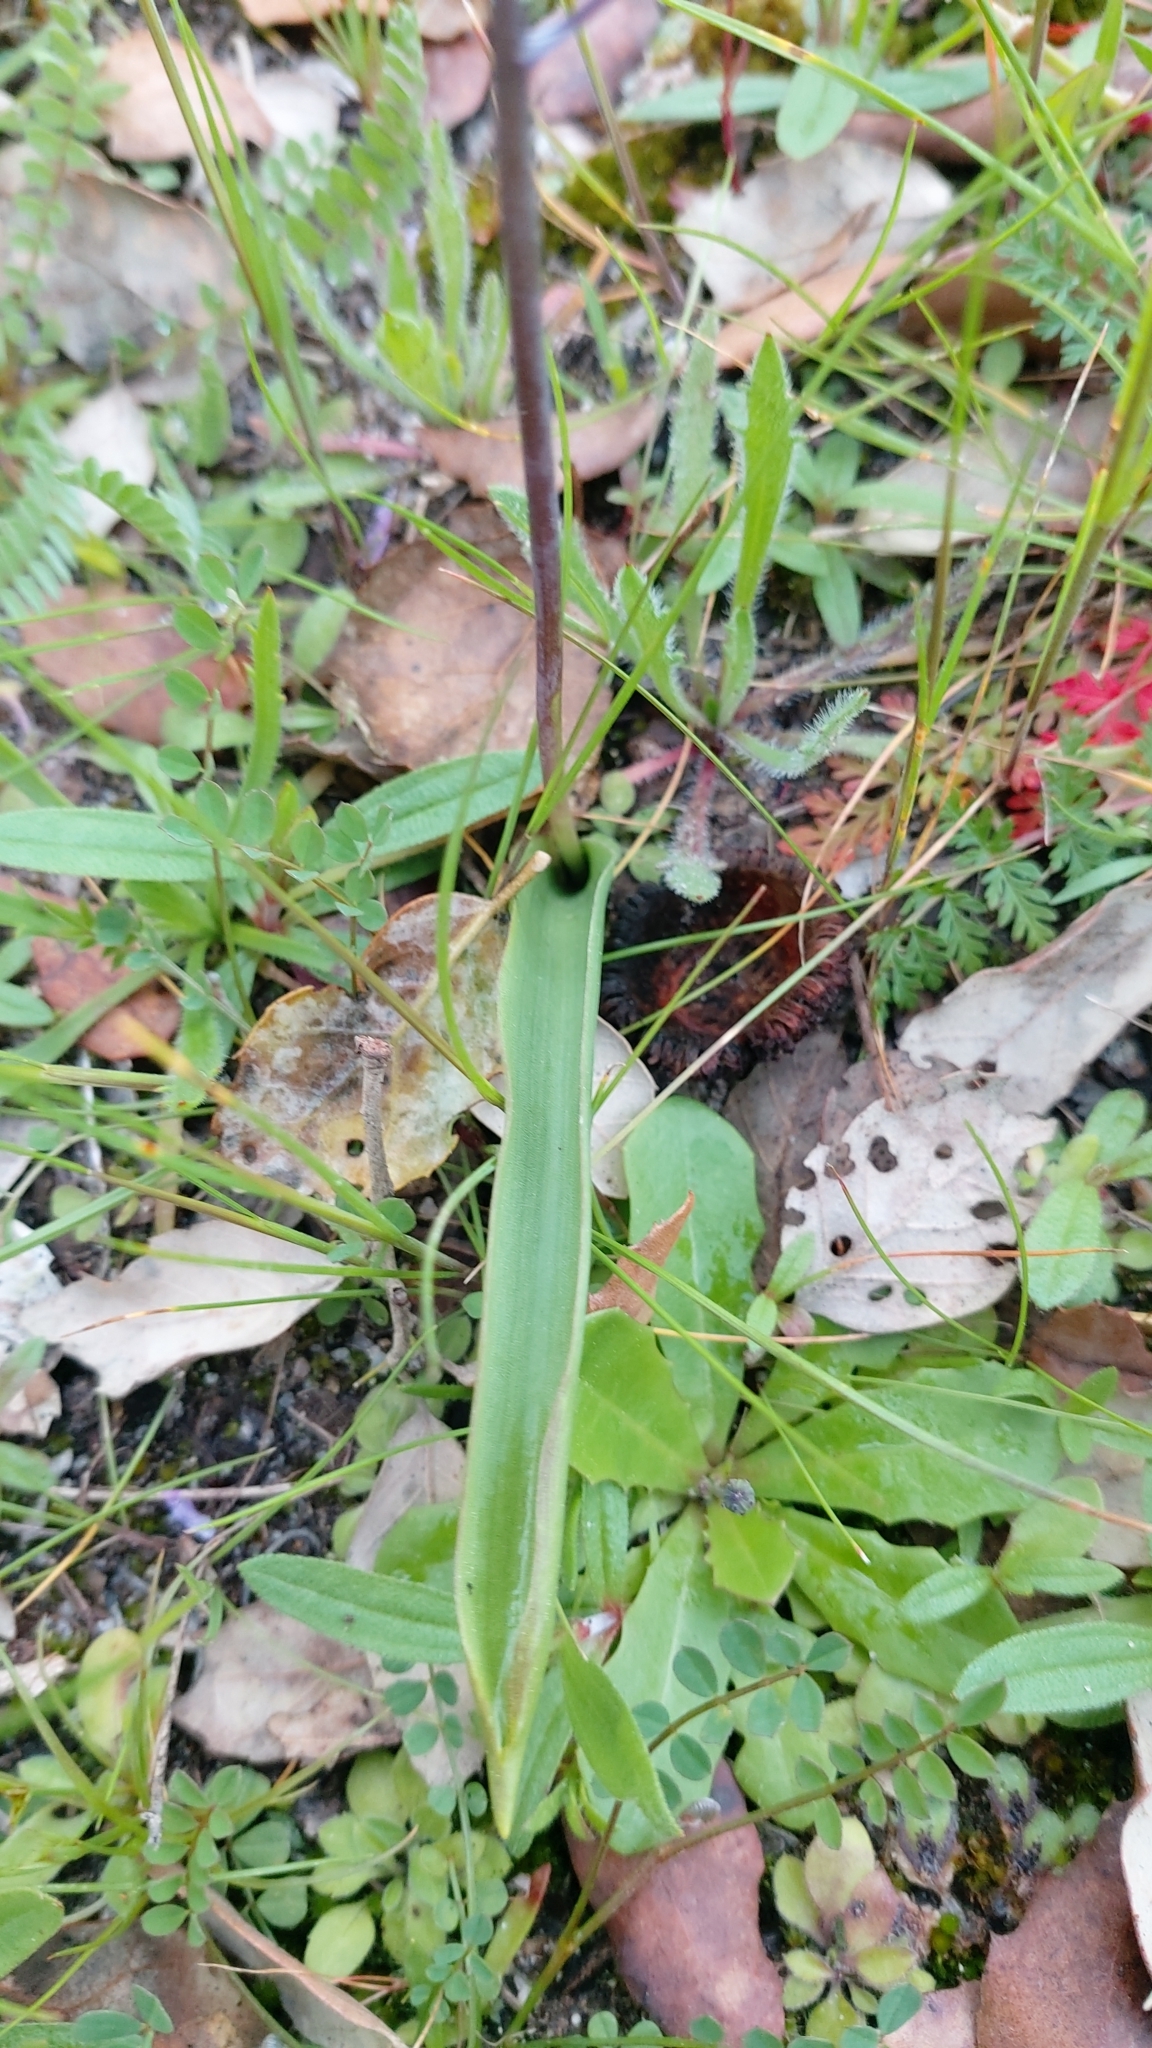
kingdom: Plantae
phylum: Tracheophyta
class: Liliopsida
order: Asparagales
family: Asparagaceae
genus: Scilla
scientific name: Scilla monophyllos
